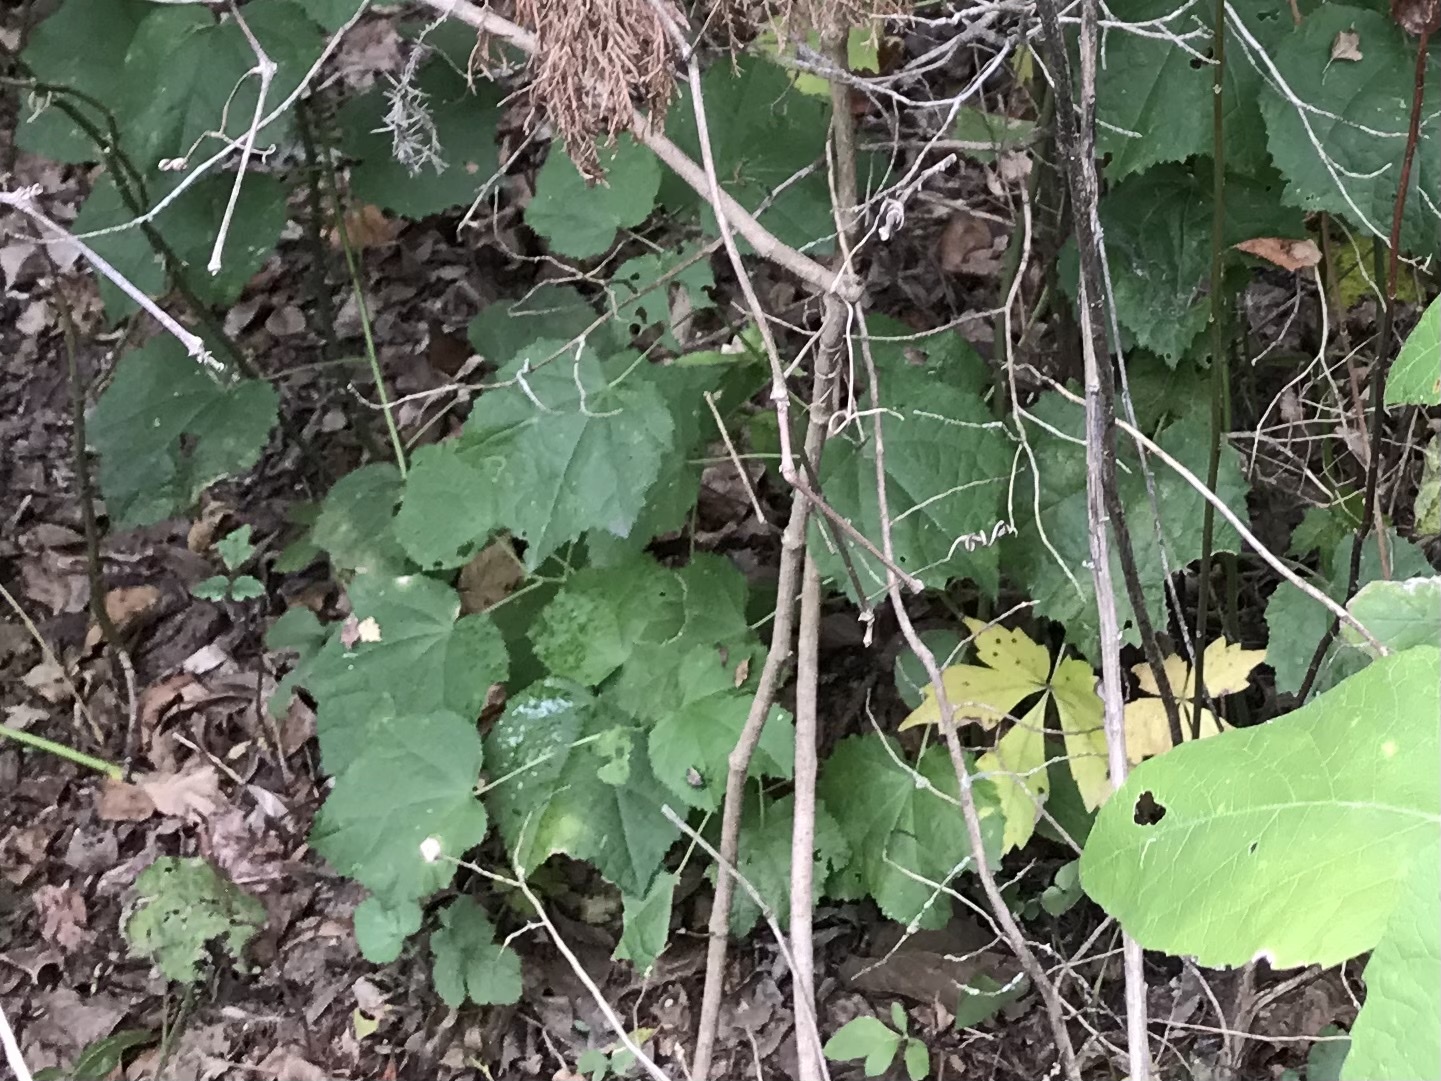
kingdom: Plantae
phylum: Tracheophyta
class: Magnoliopsida
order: Malvales
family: Malvaceae
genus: Malvaviscus
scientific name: Malvaviscus arboreus
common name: Wax mallow
